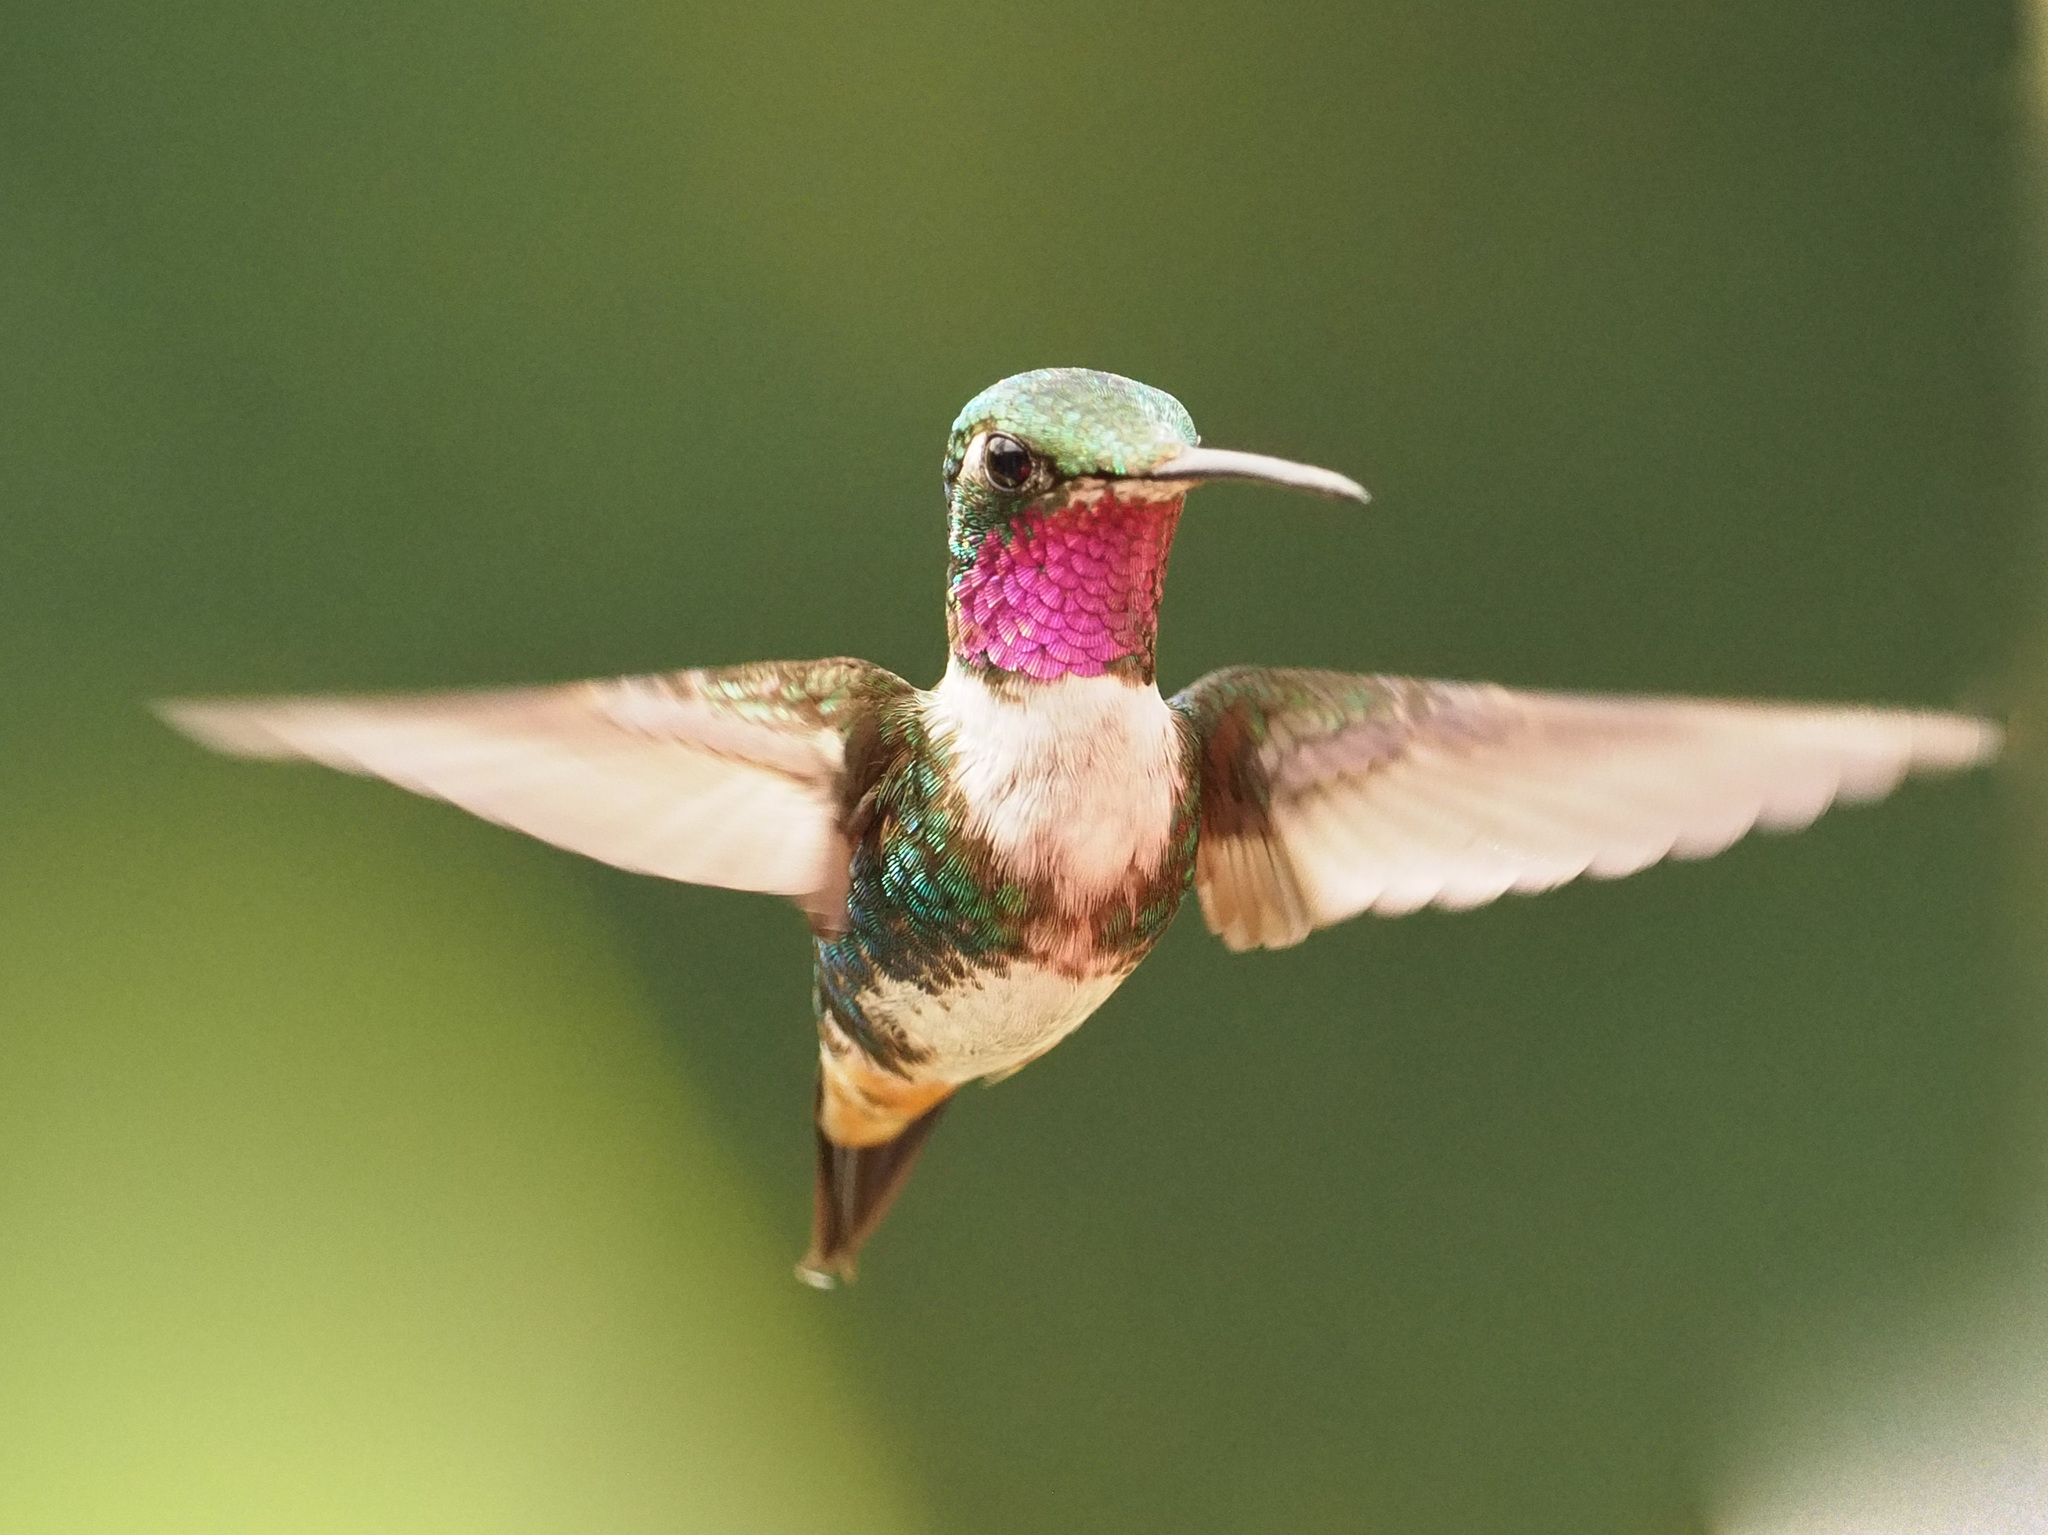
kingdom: Animalia
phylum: Chordata
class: Aves
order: Apodiformes
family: Trochilidae
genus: Chaetocercus
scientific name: Chaetocercus mulsant
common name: White-bellied woodstar
